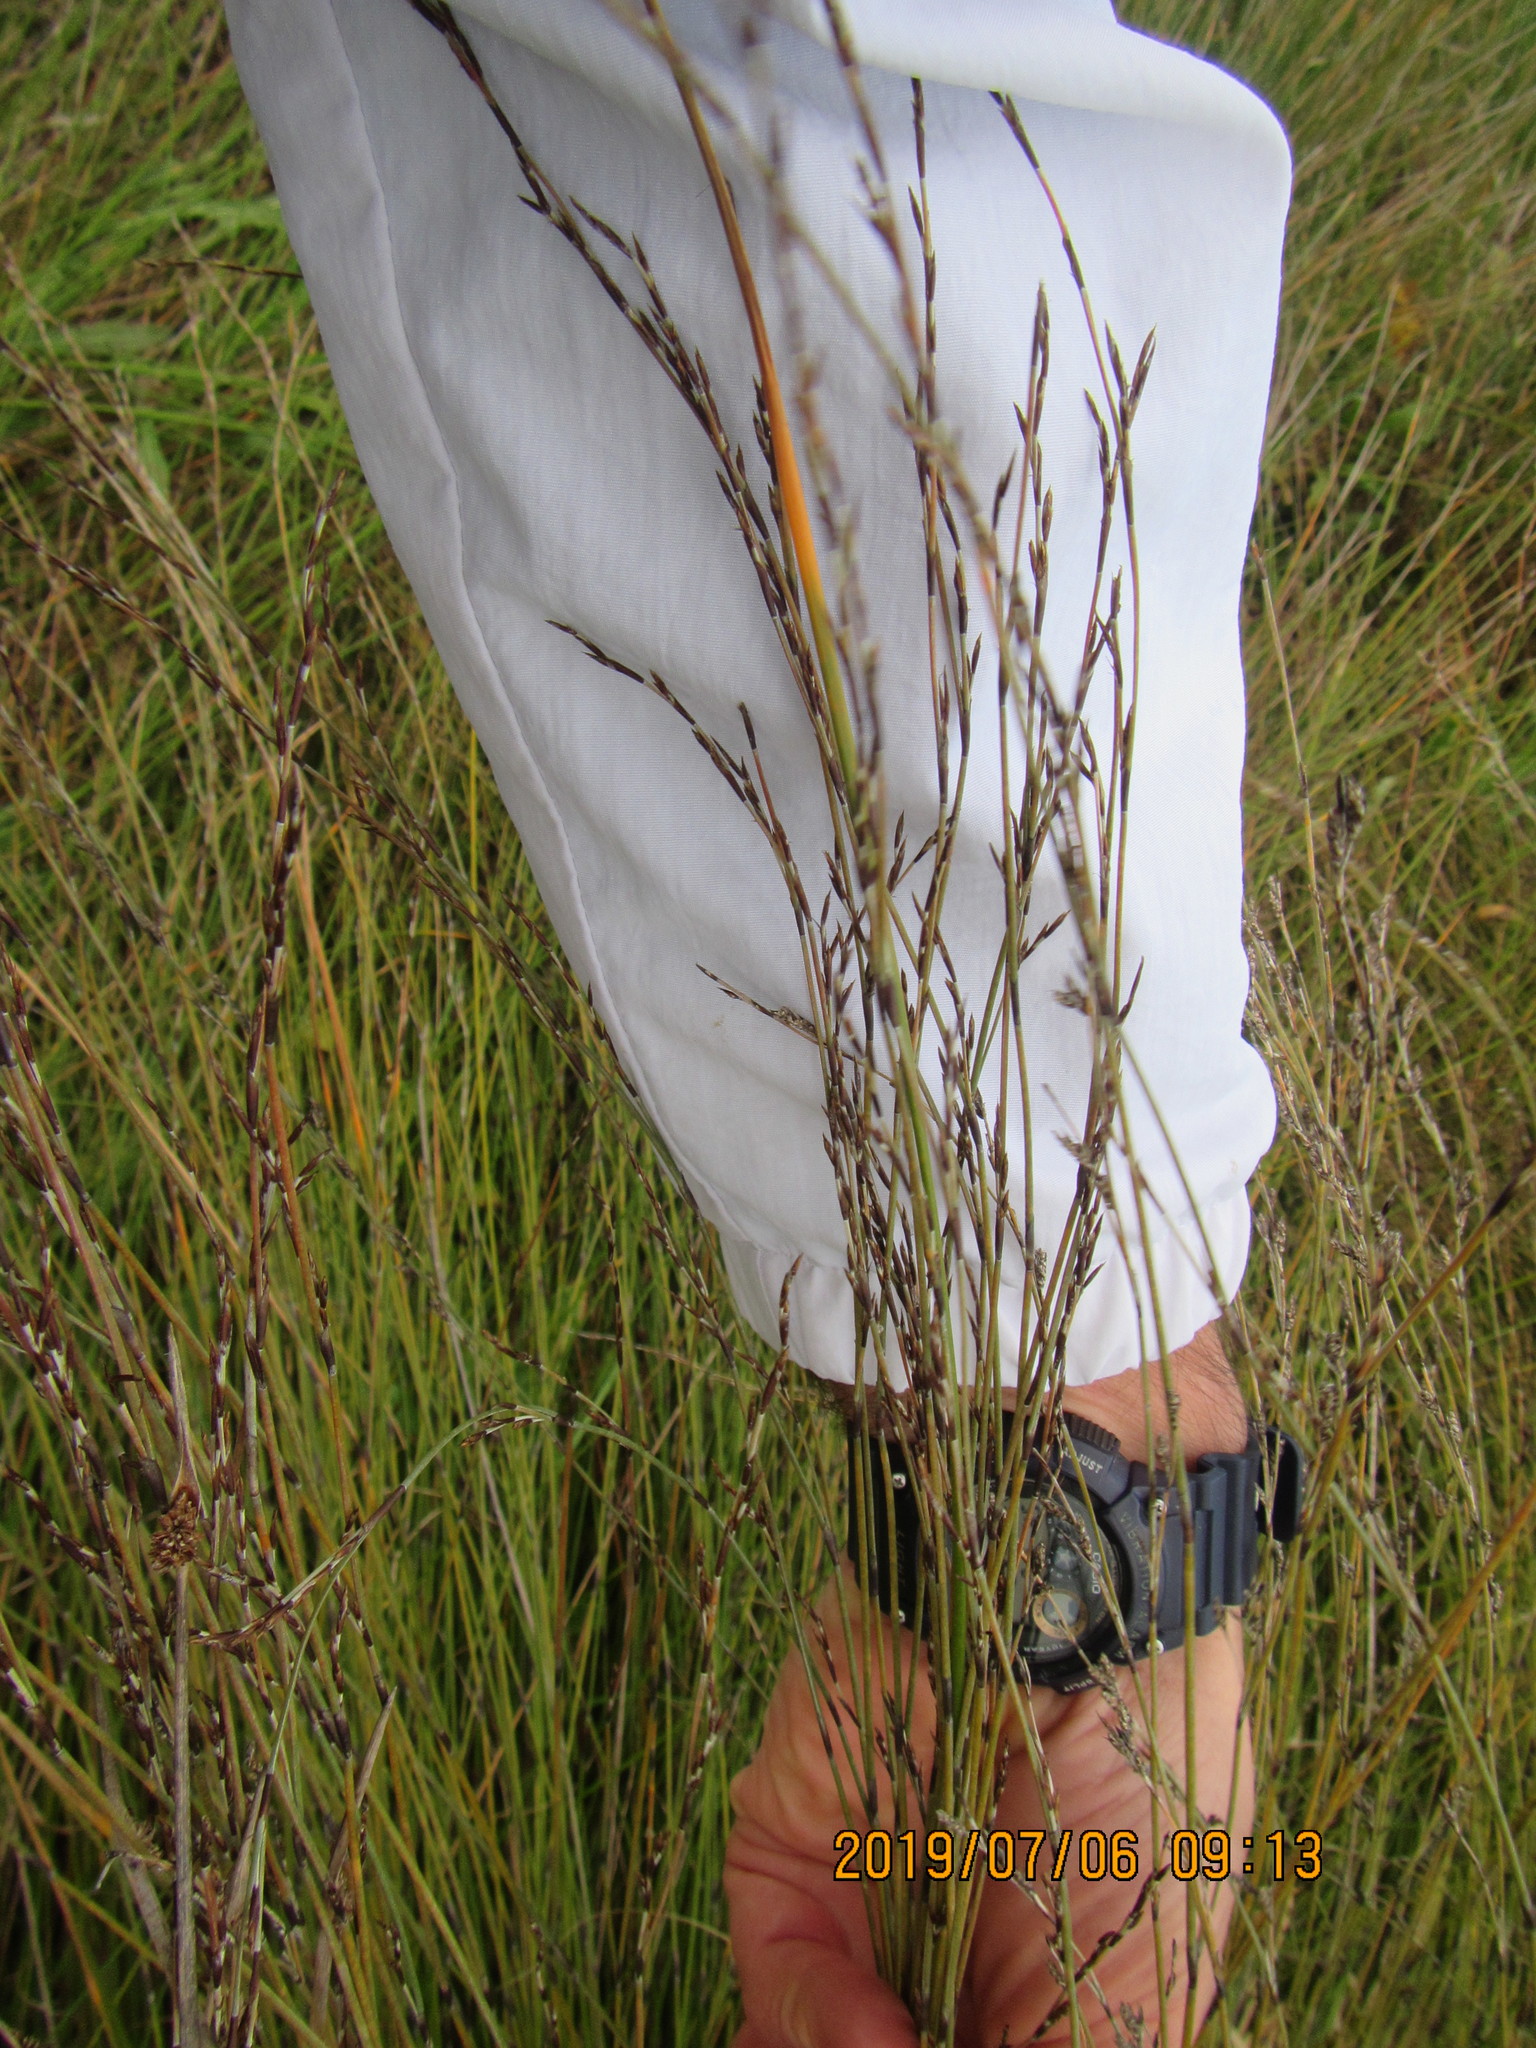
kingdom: Plantae
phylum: Tracheophyta
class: Liliopsida
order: Poales
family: Restionaceae
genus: Apodasmia
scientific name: Apodasmia similis
